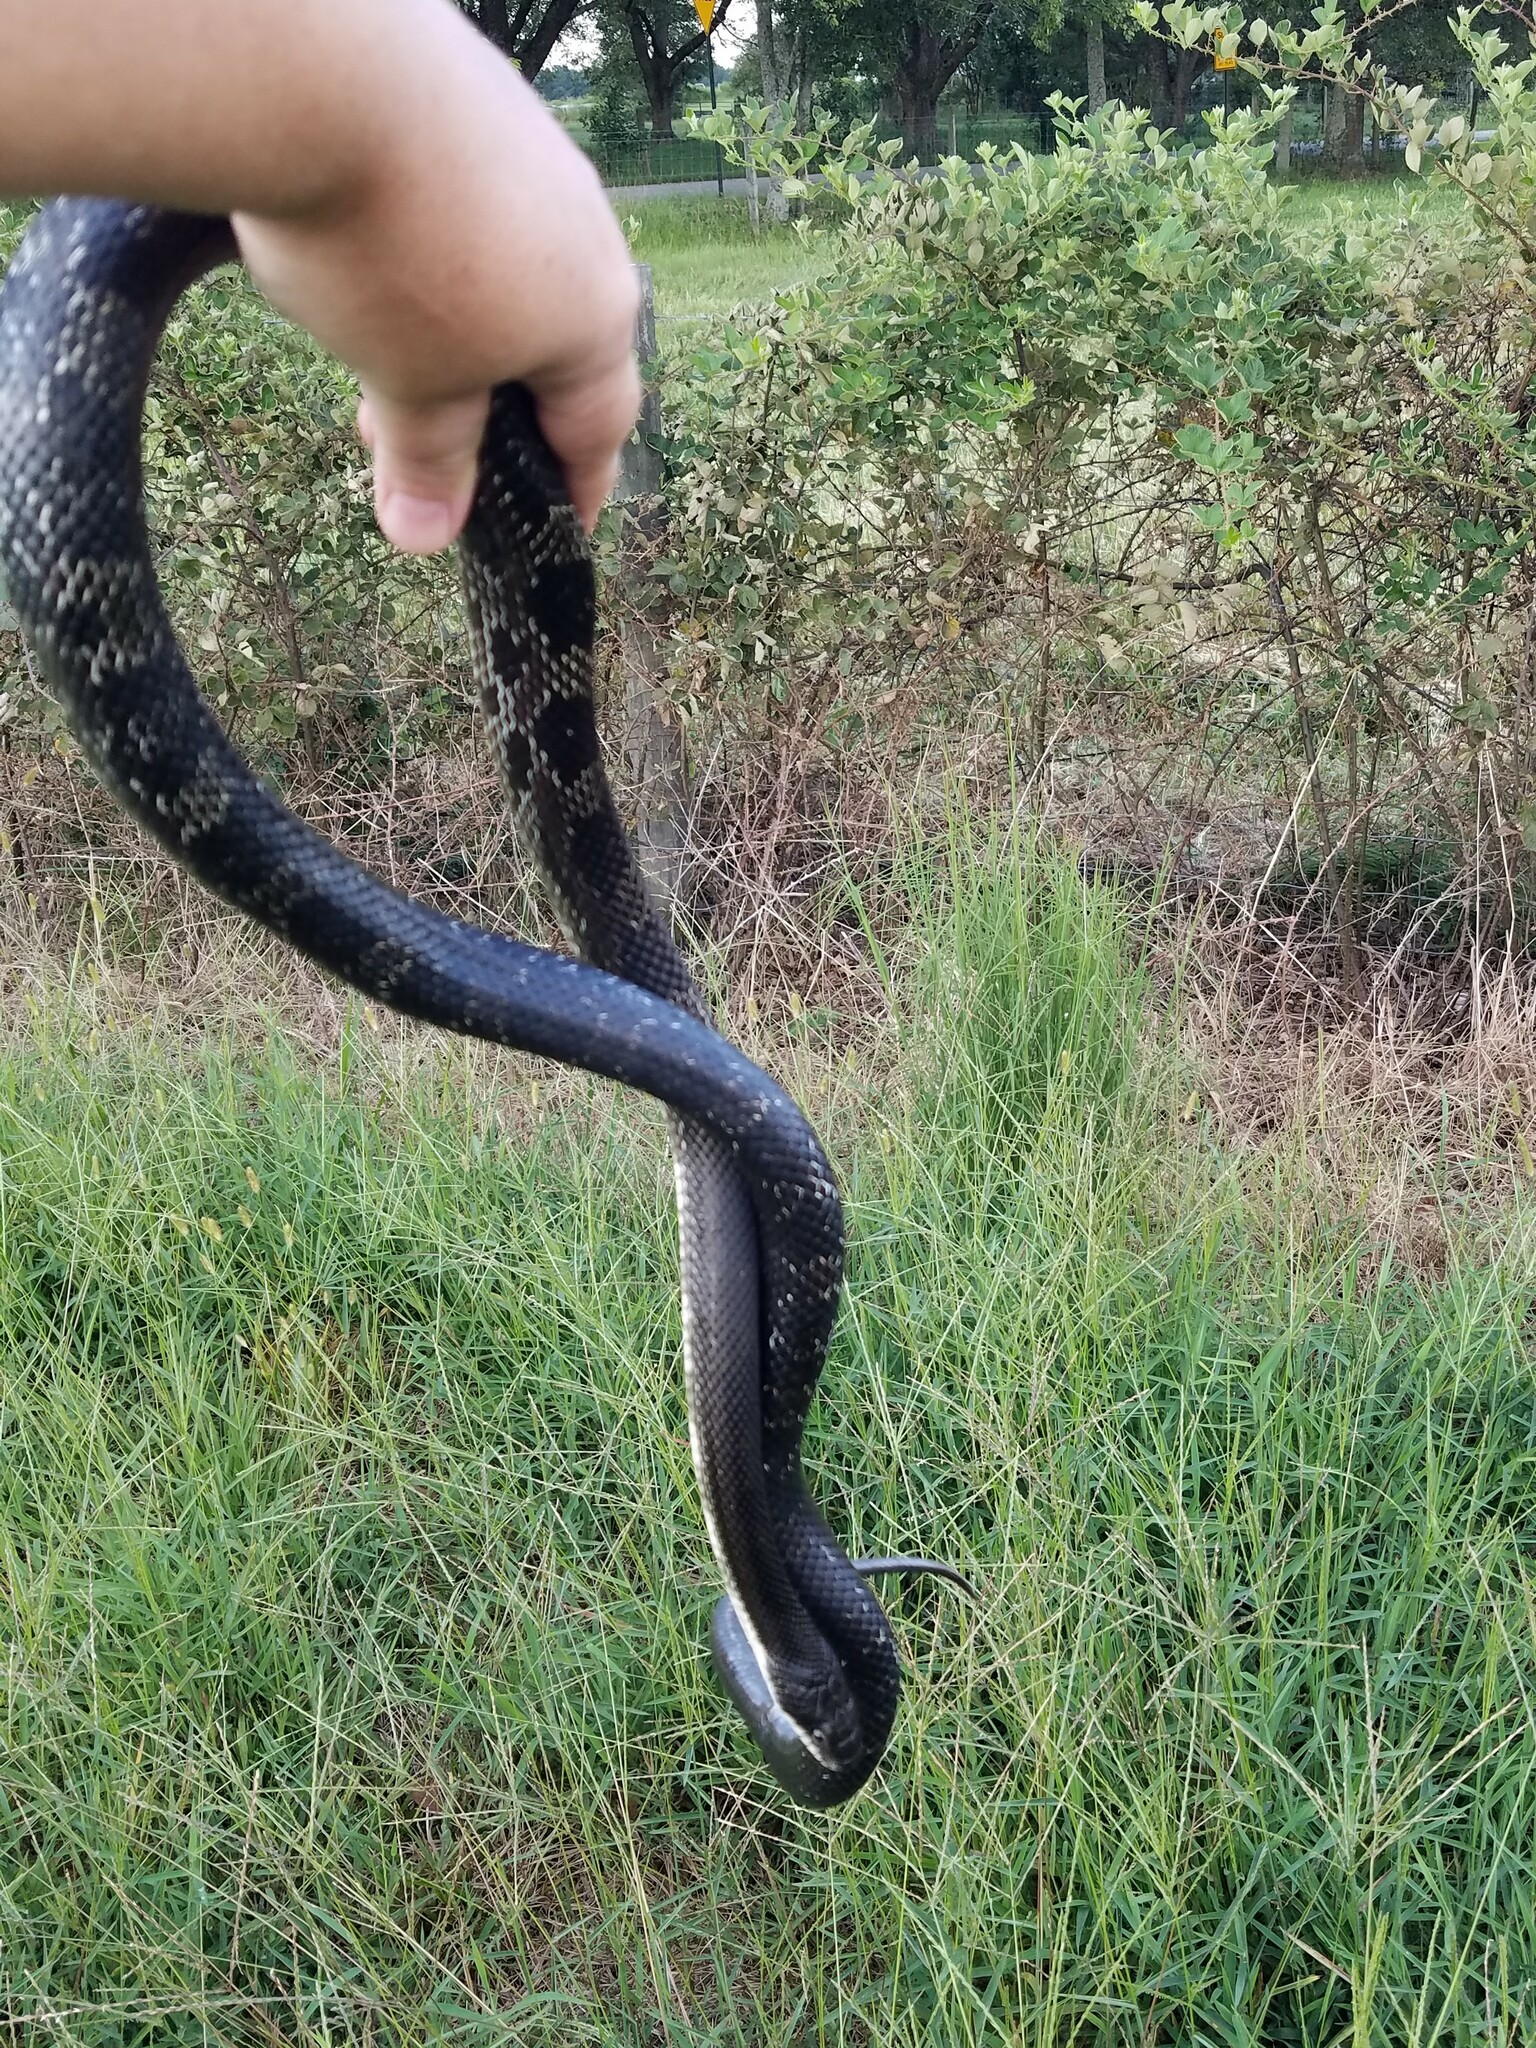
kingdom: Animalia
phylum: Chordata
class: Squamata
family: Colubridae
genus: Pantherophis
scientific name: Pantherophis
